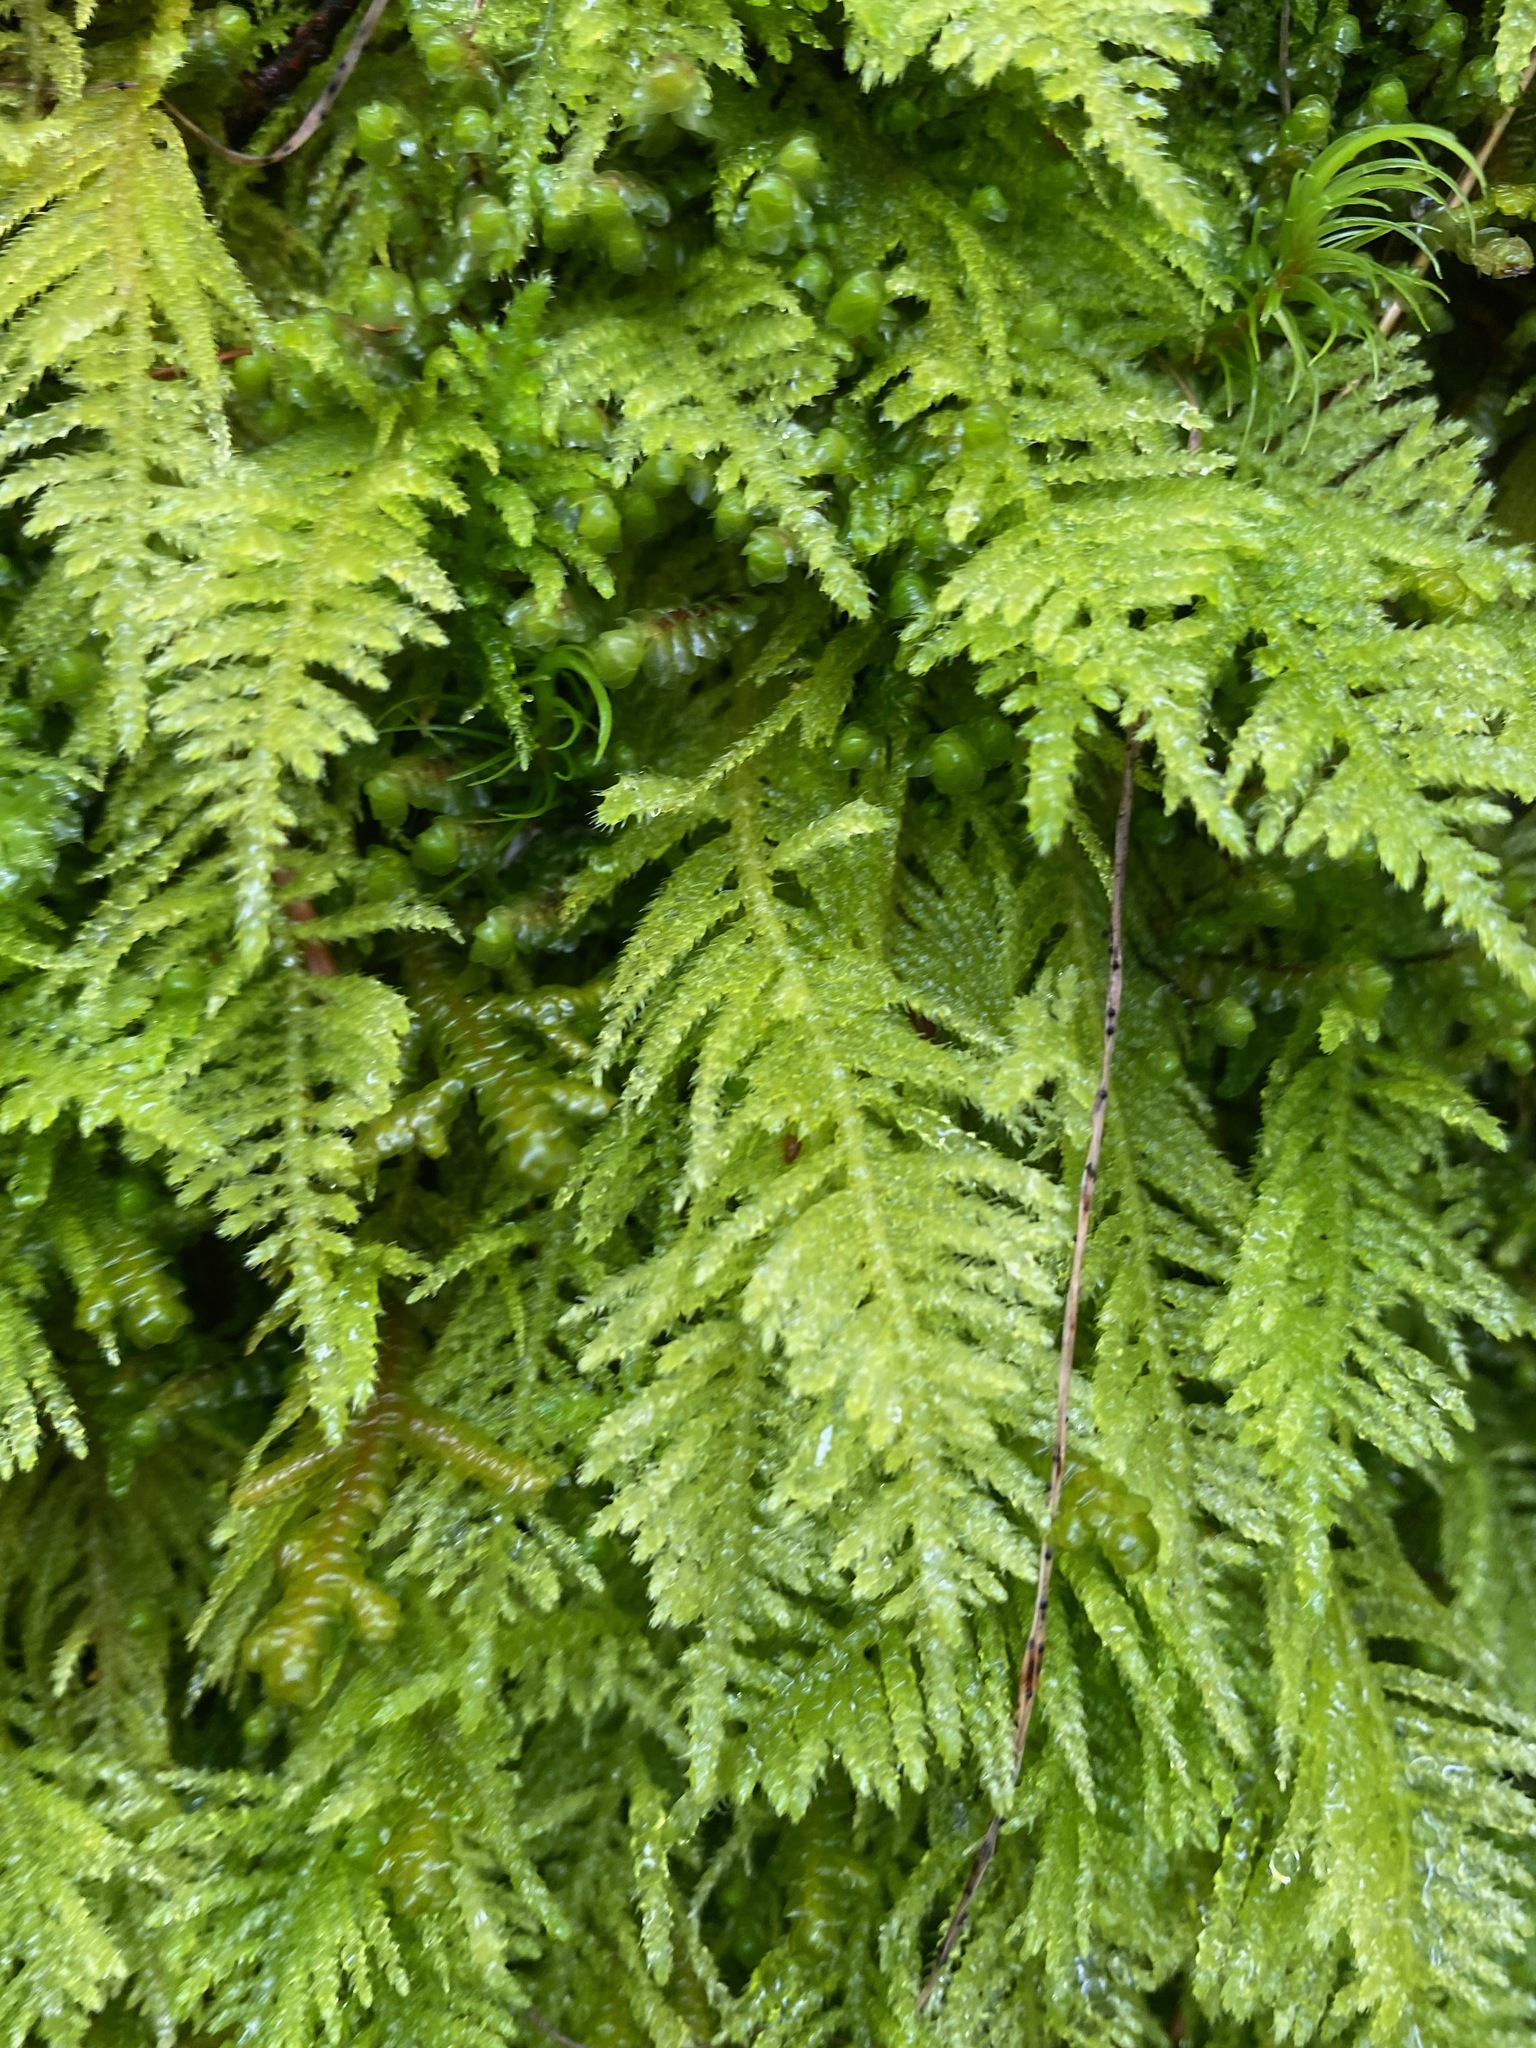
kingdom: Plantae
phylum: Bryophyta
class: Bryopsida
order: Hypnales
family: Brachytheciaceae
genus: Kindbergia
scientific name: Kindbergia oregana
